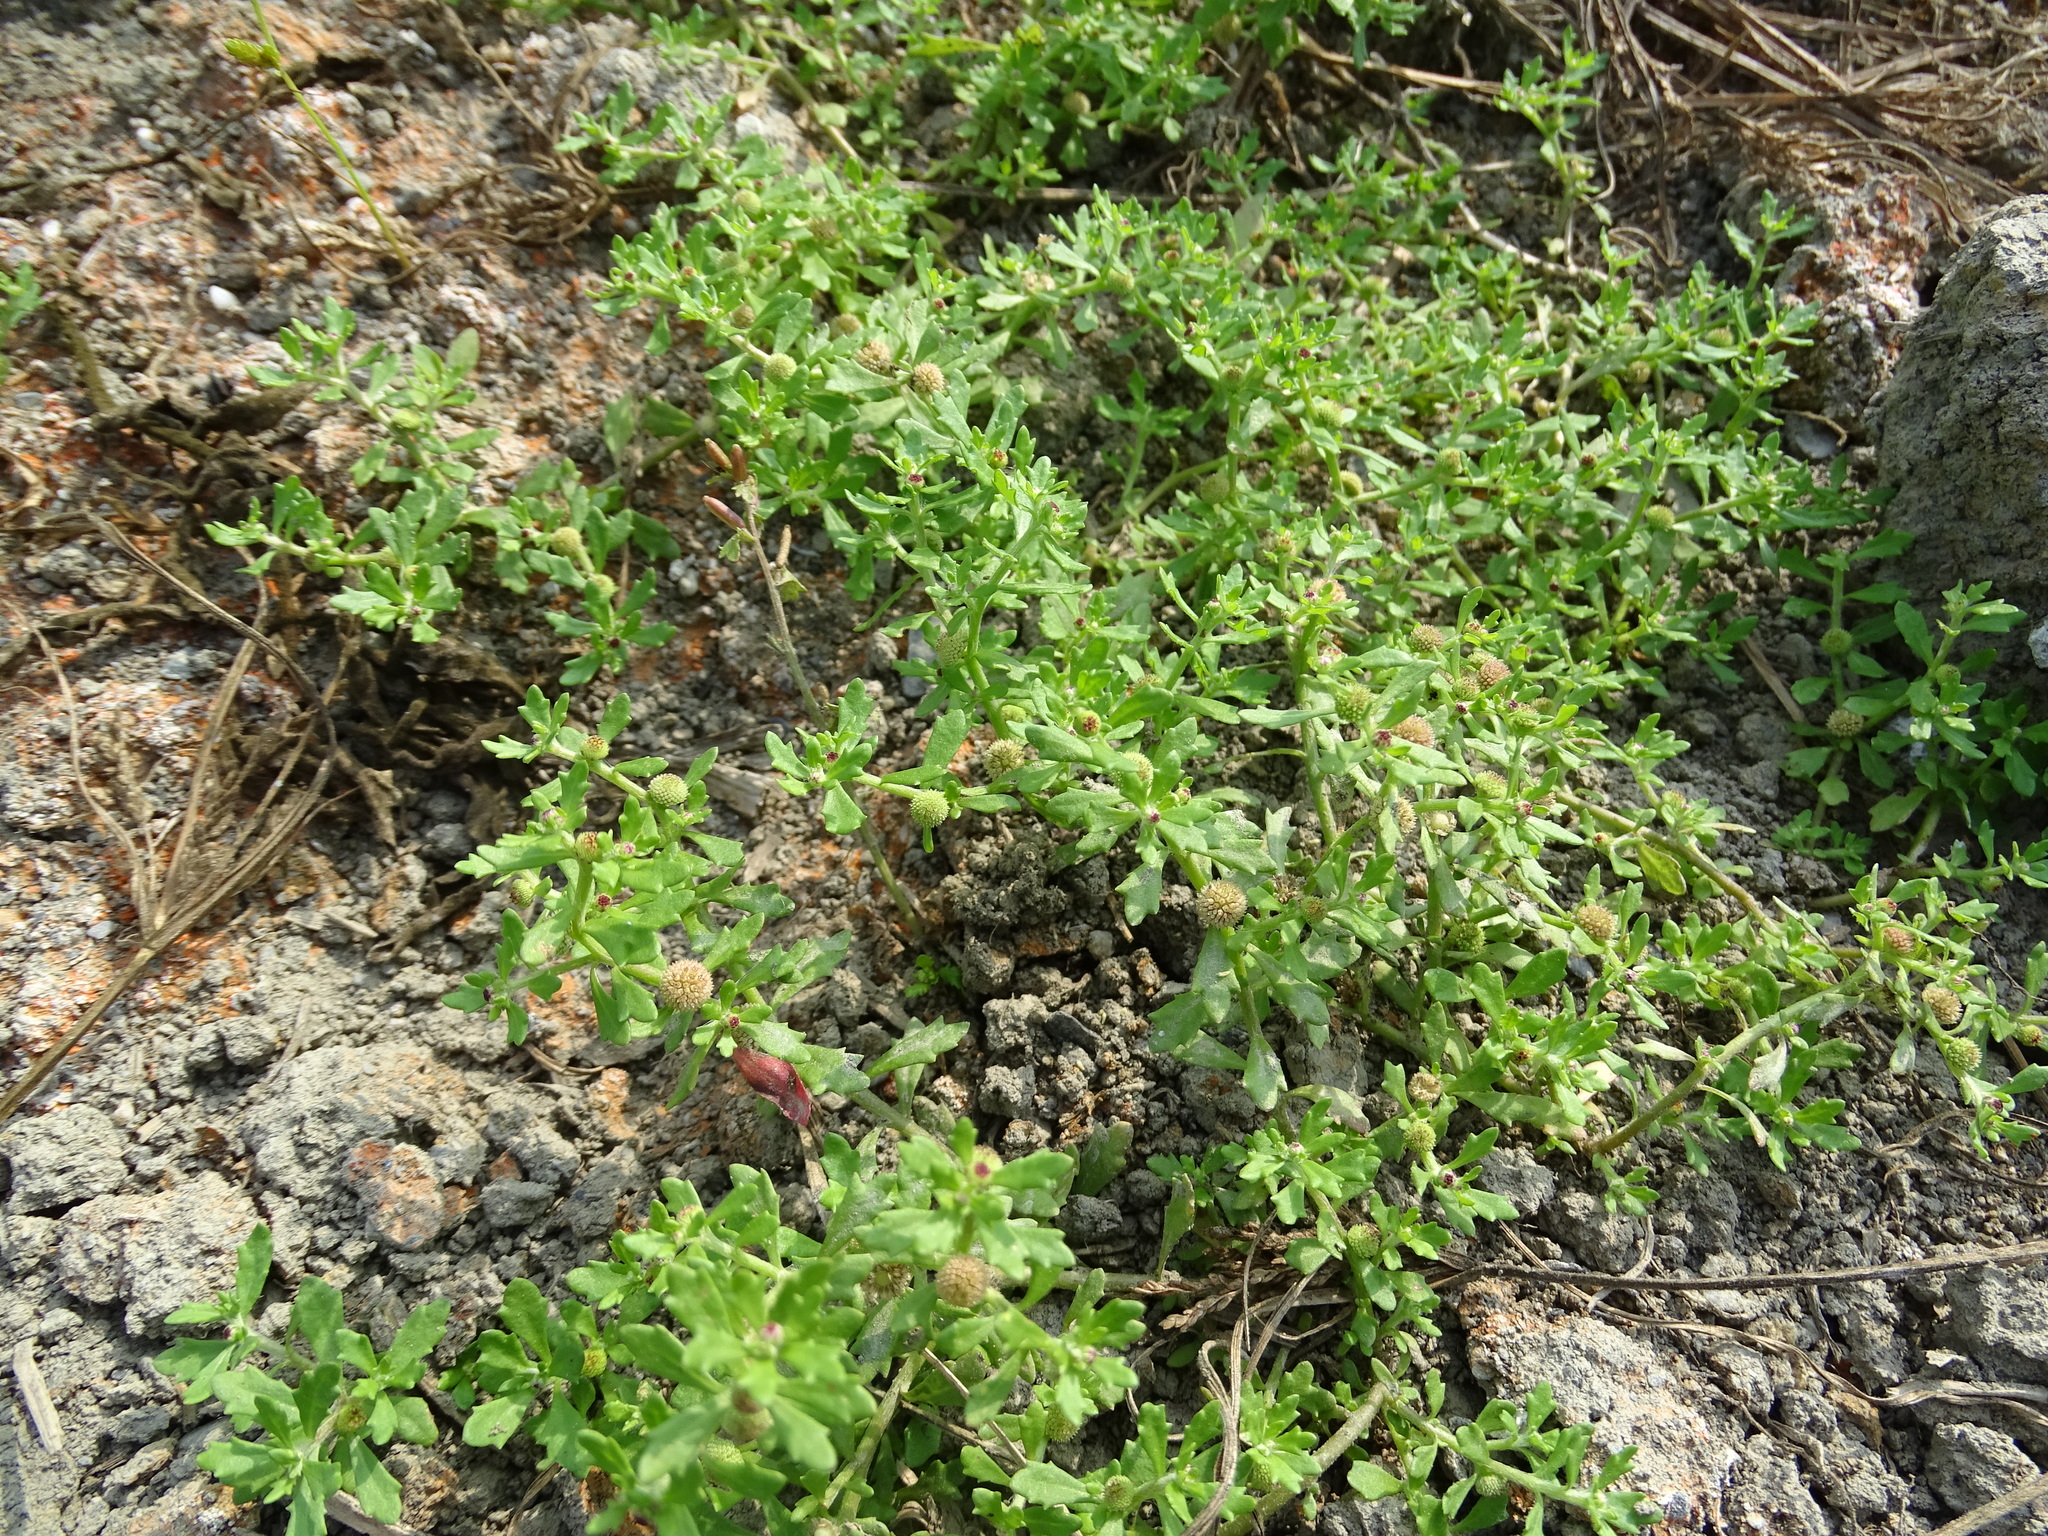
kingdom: Plantae
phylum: Tracheophyta
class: Magnoliopsida
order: Asterales
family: Asteraceae
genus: Centipeda
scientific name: Centipeda minima
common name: Spreading sneezeweed
